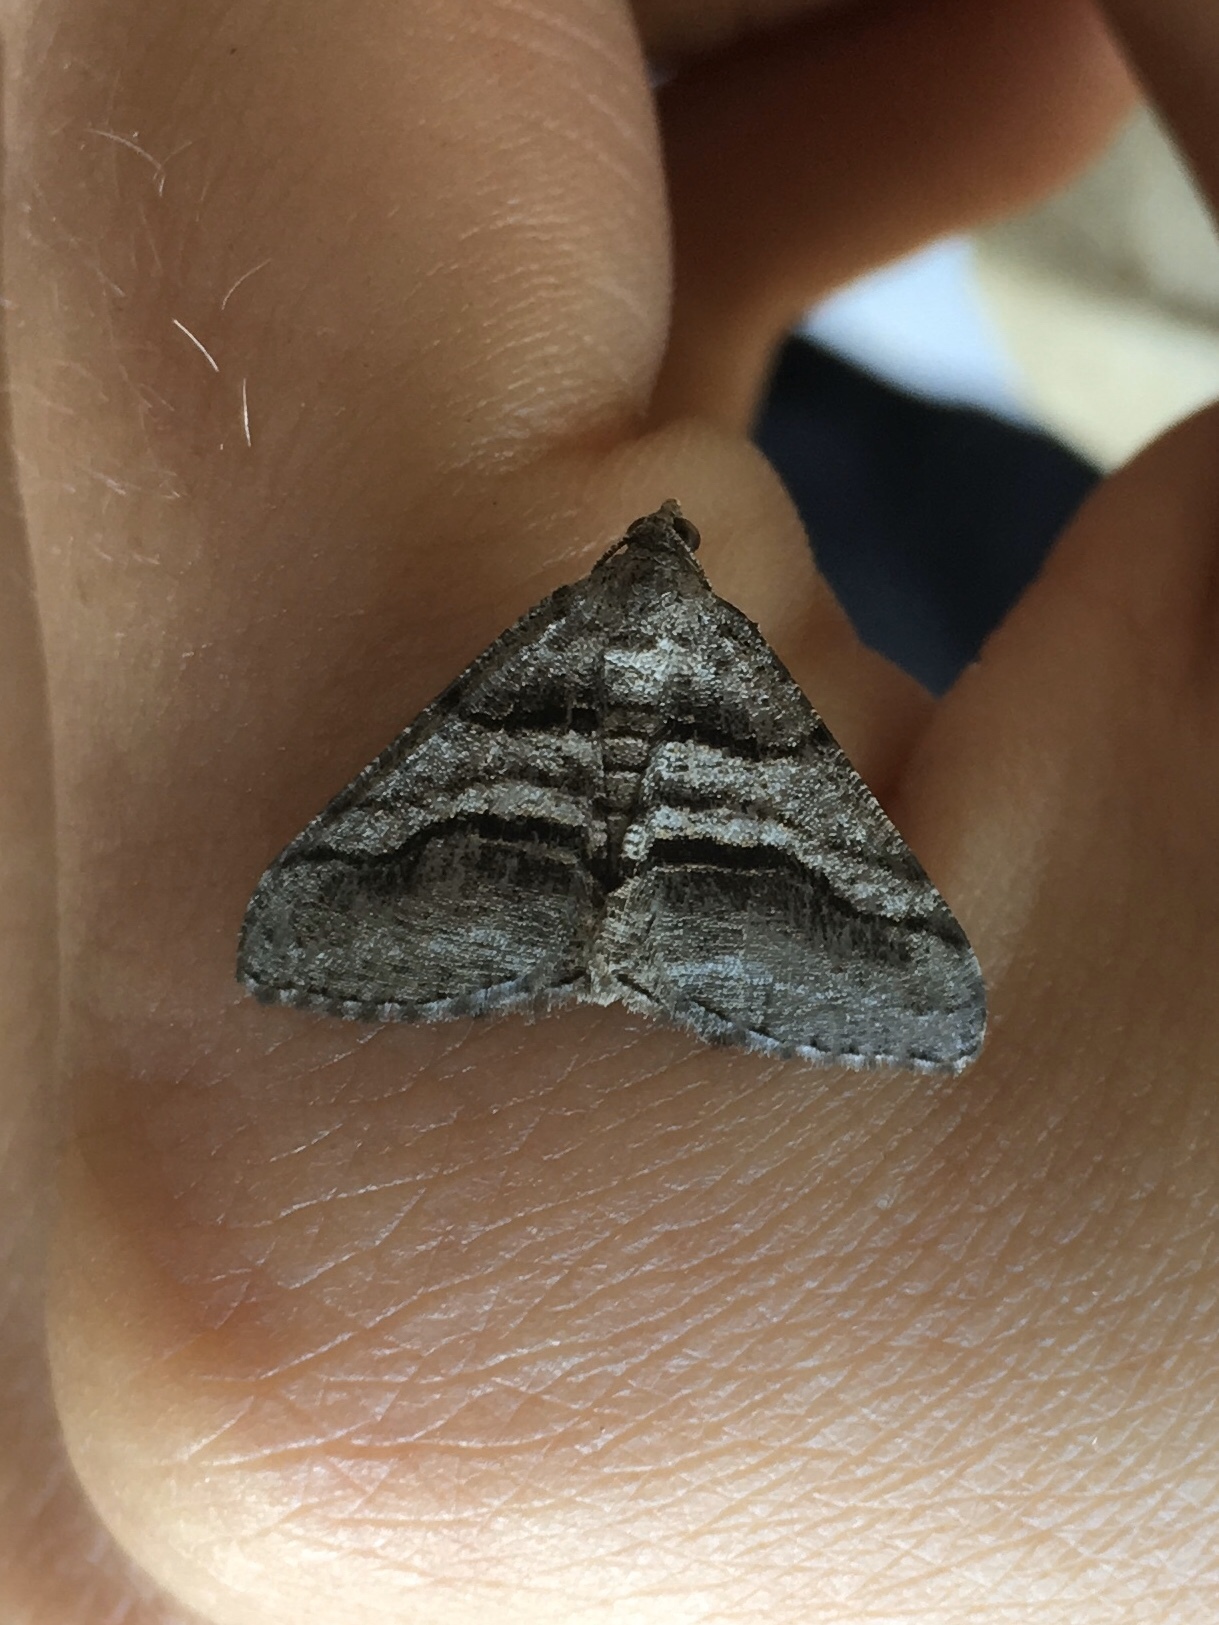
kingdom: Animalia
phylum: Arthropoda
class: Insecta
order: Lepidoptera
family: Geometridae
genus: Digrammia
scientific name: Digrammia continuata
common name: Curve-lined angle
